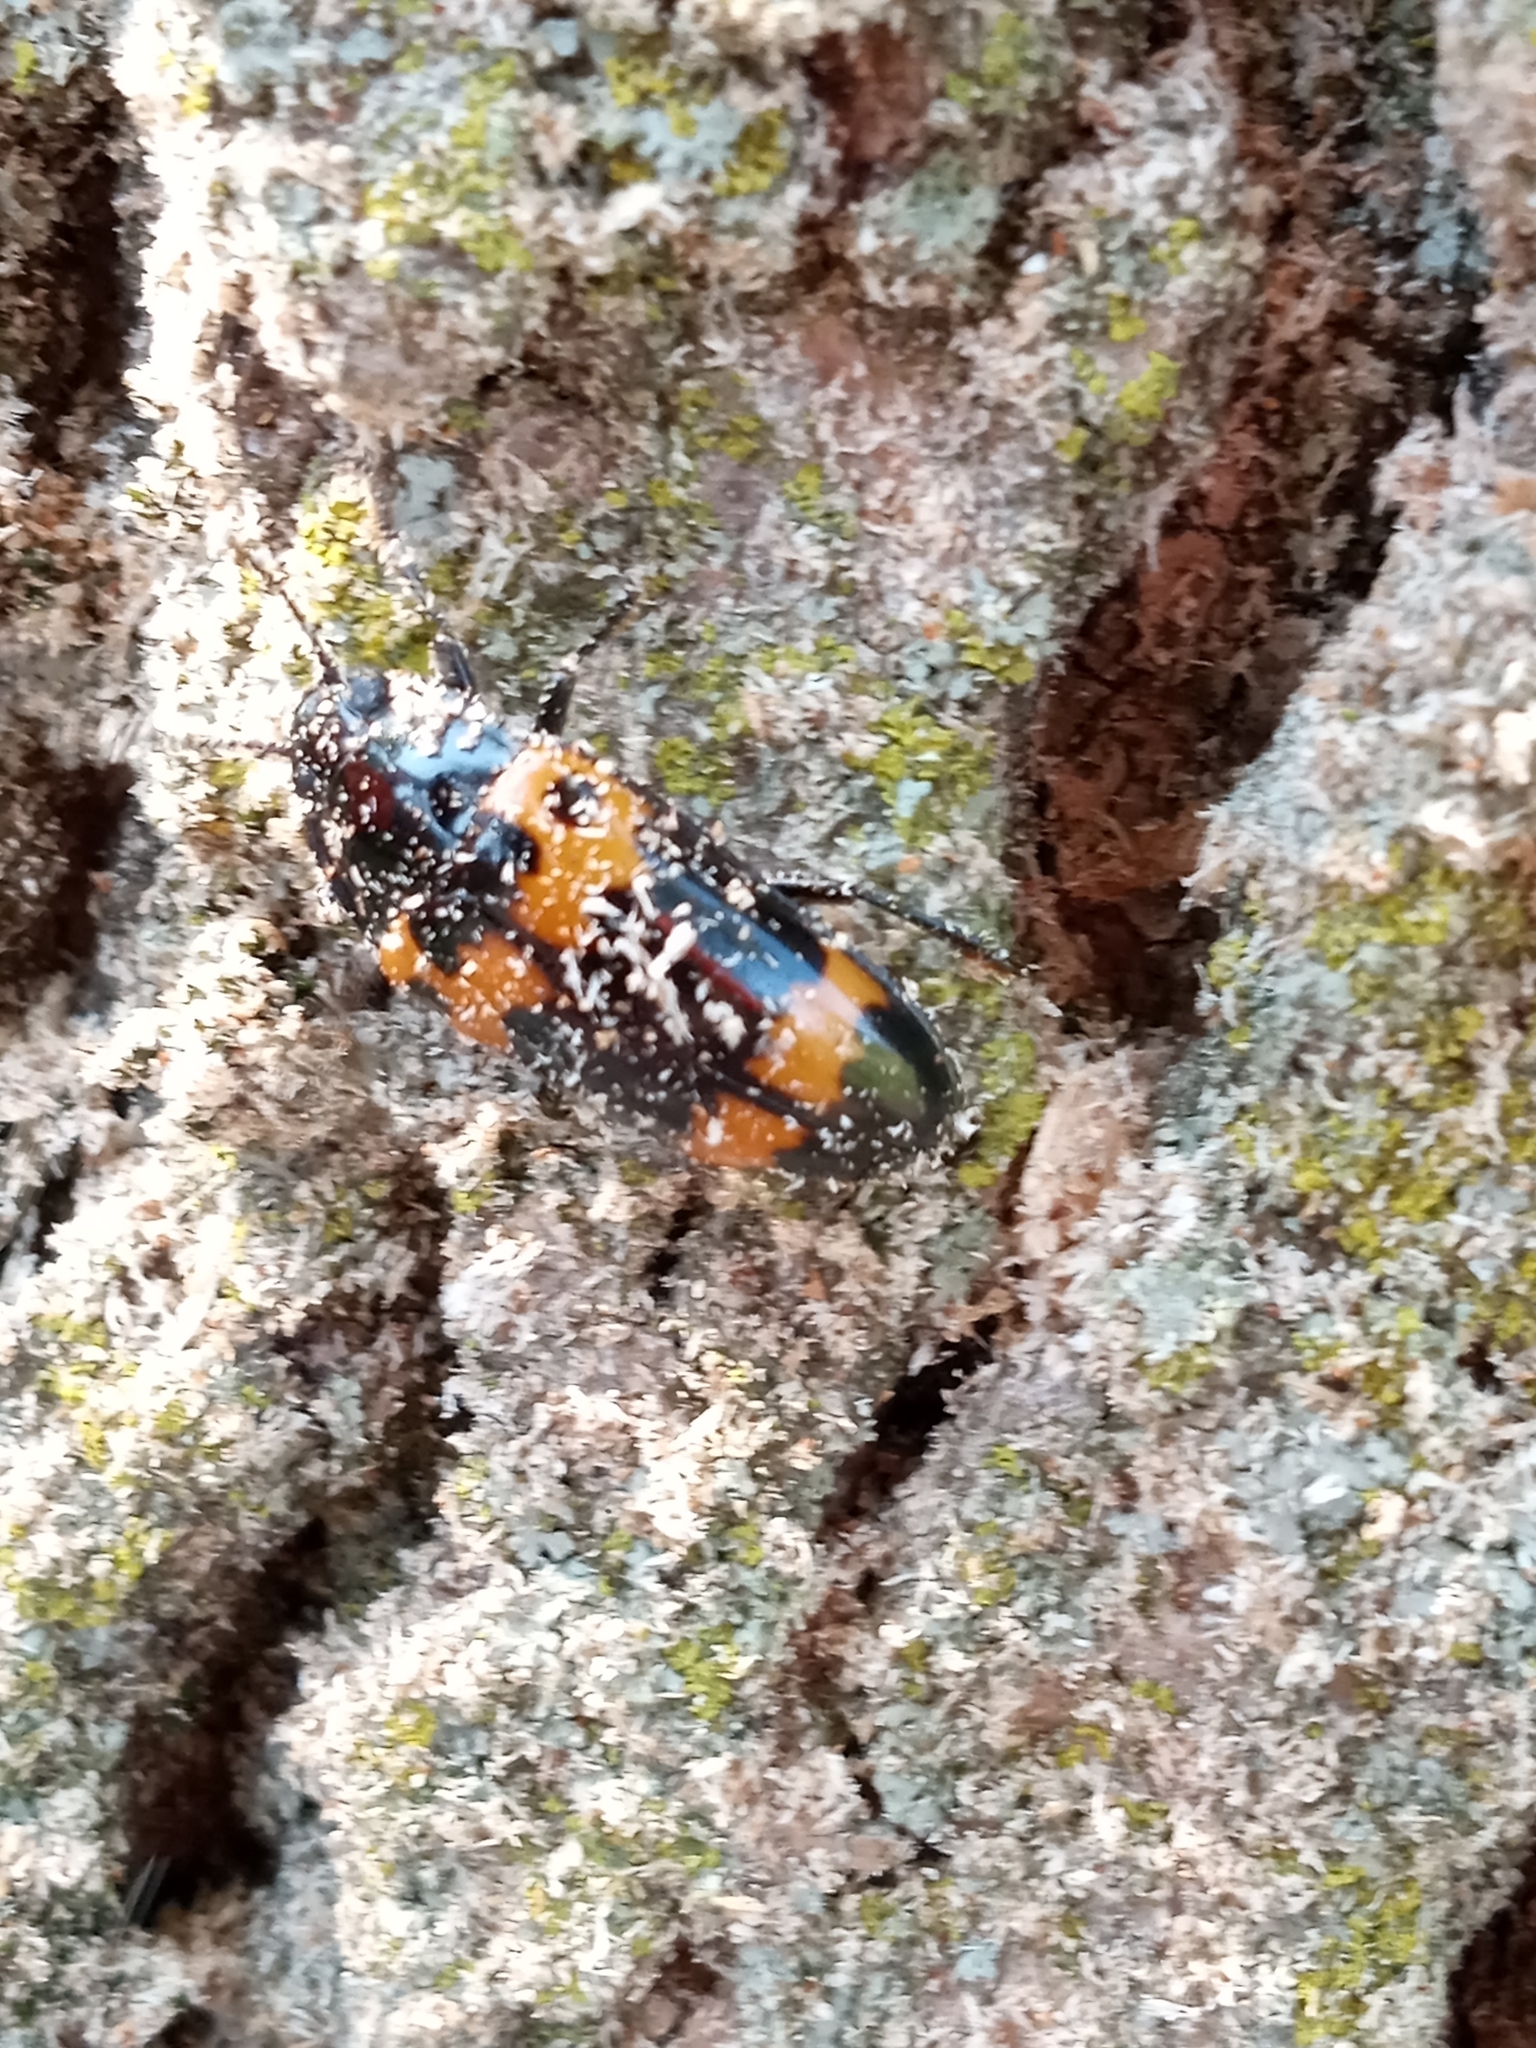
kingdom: Animalia
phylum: Arthropoda
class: Insecta
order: Coleoptera
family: Erotylidae
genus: Megalodacne
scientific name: Megalodacne fasciata
